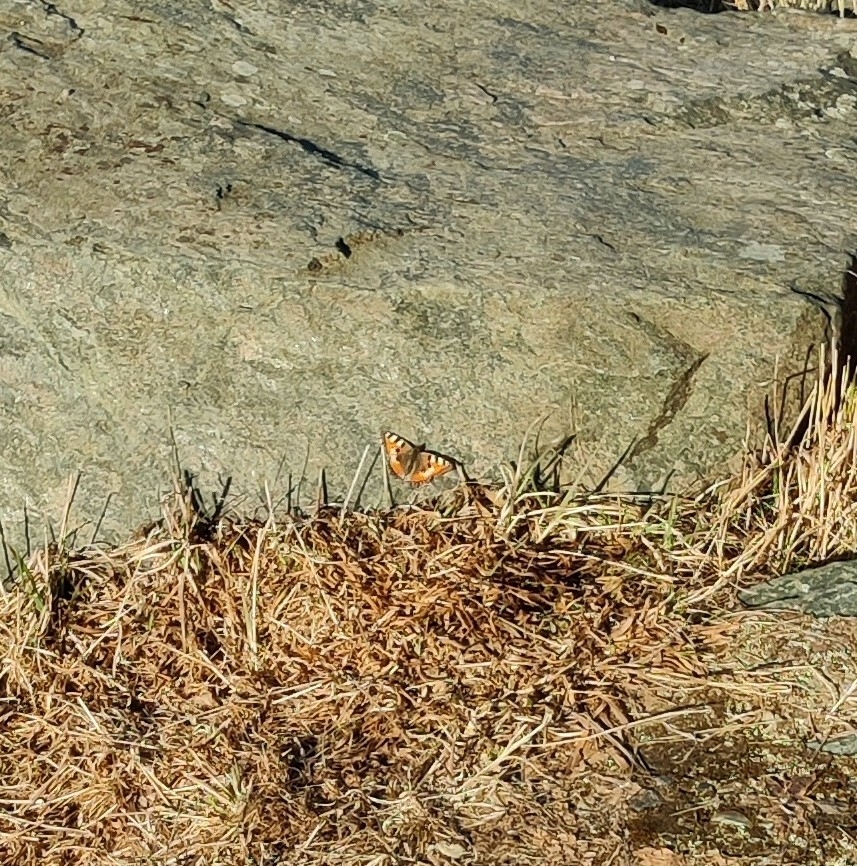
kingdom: Animalia
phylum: Arthropoda
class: Insecta
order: Lepidoptera
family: Nymphalidae
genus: Aglais
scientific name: Aglais urticae
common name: Small tortoiseshell
